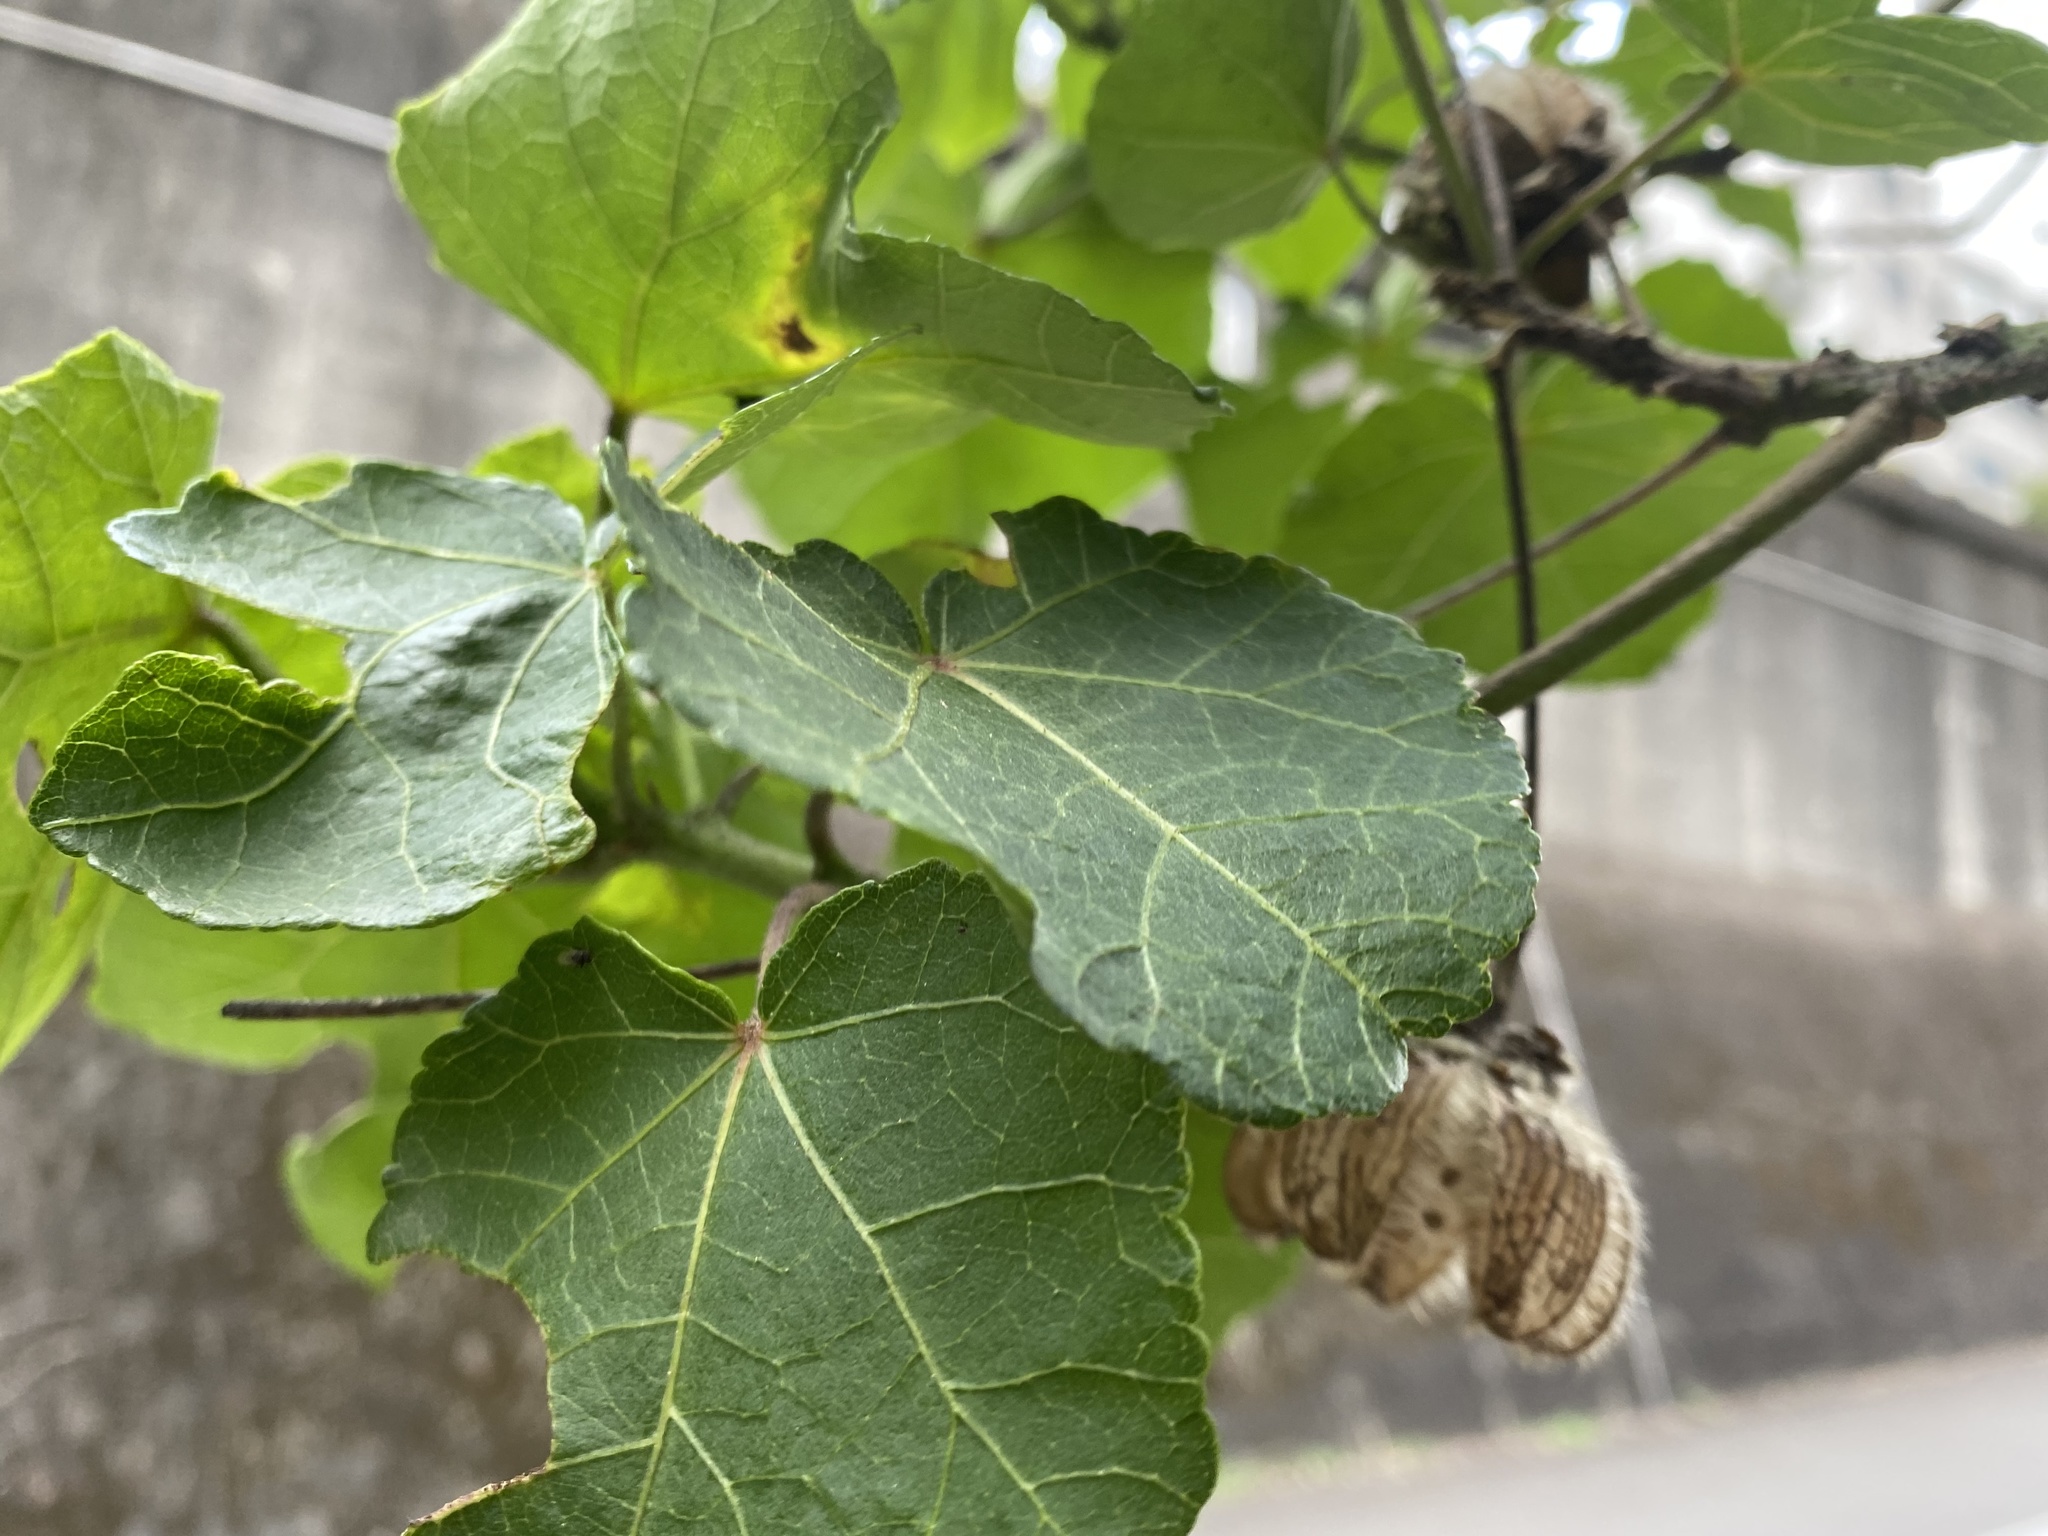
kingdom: Plantae
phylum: Tracheophyta
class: Magnoliopsida
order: Malvales
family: Malvaceae
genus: Hibiscus
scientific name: Hibiscus taiwanensis
